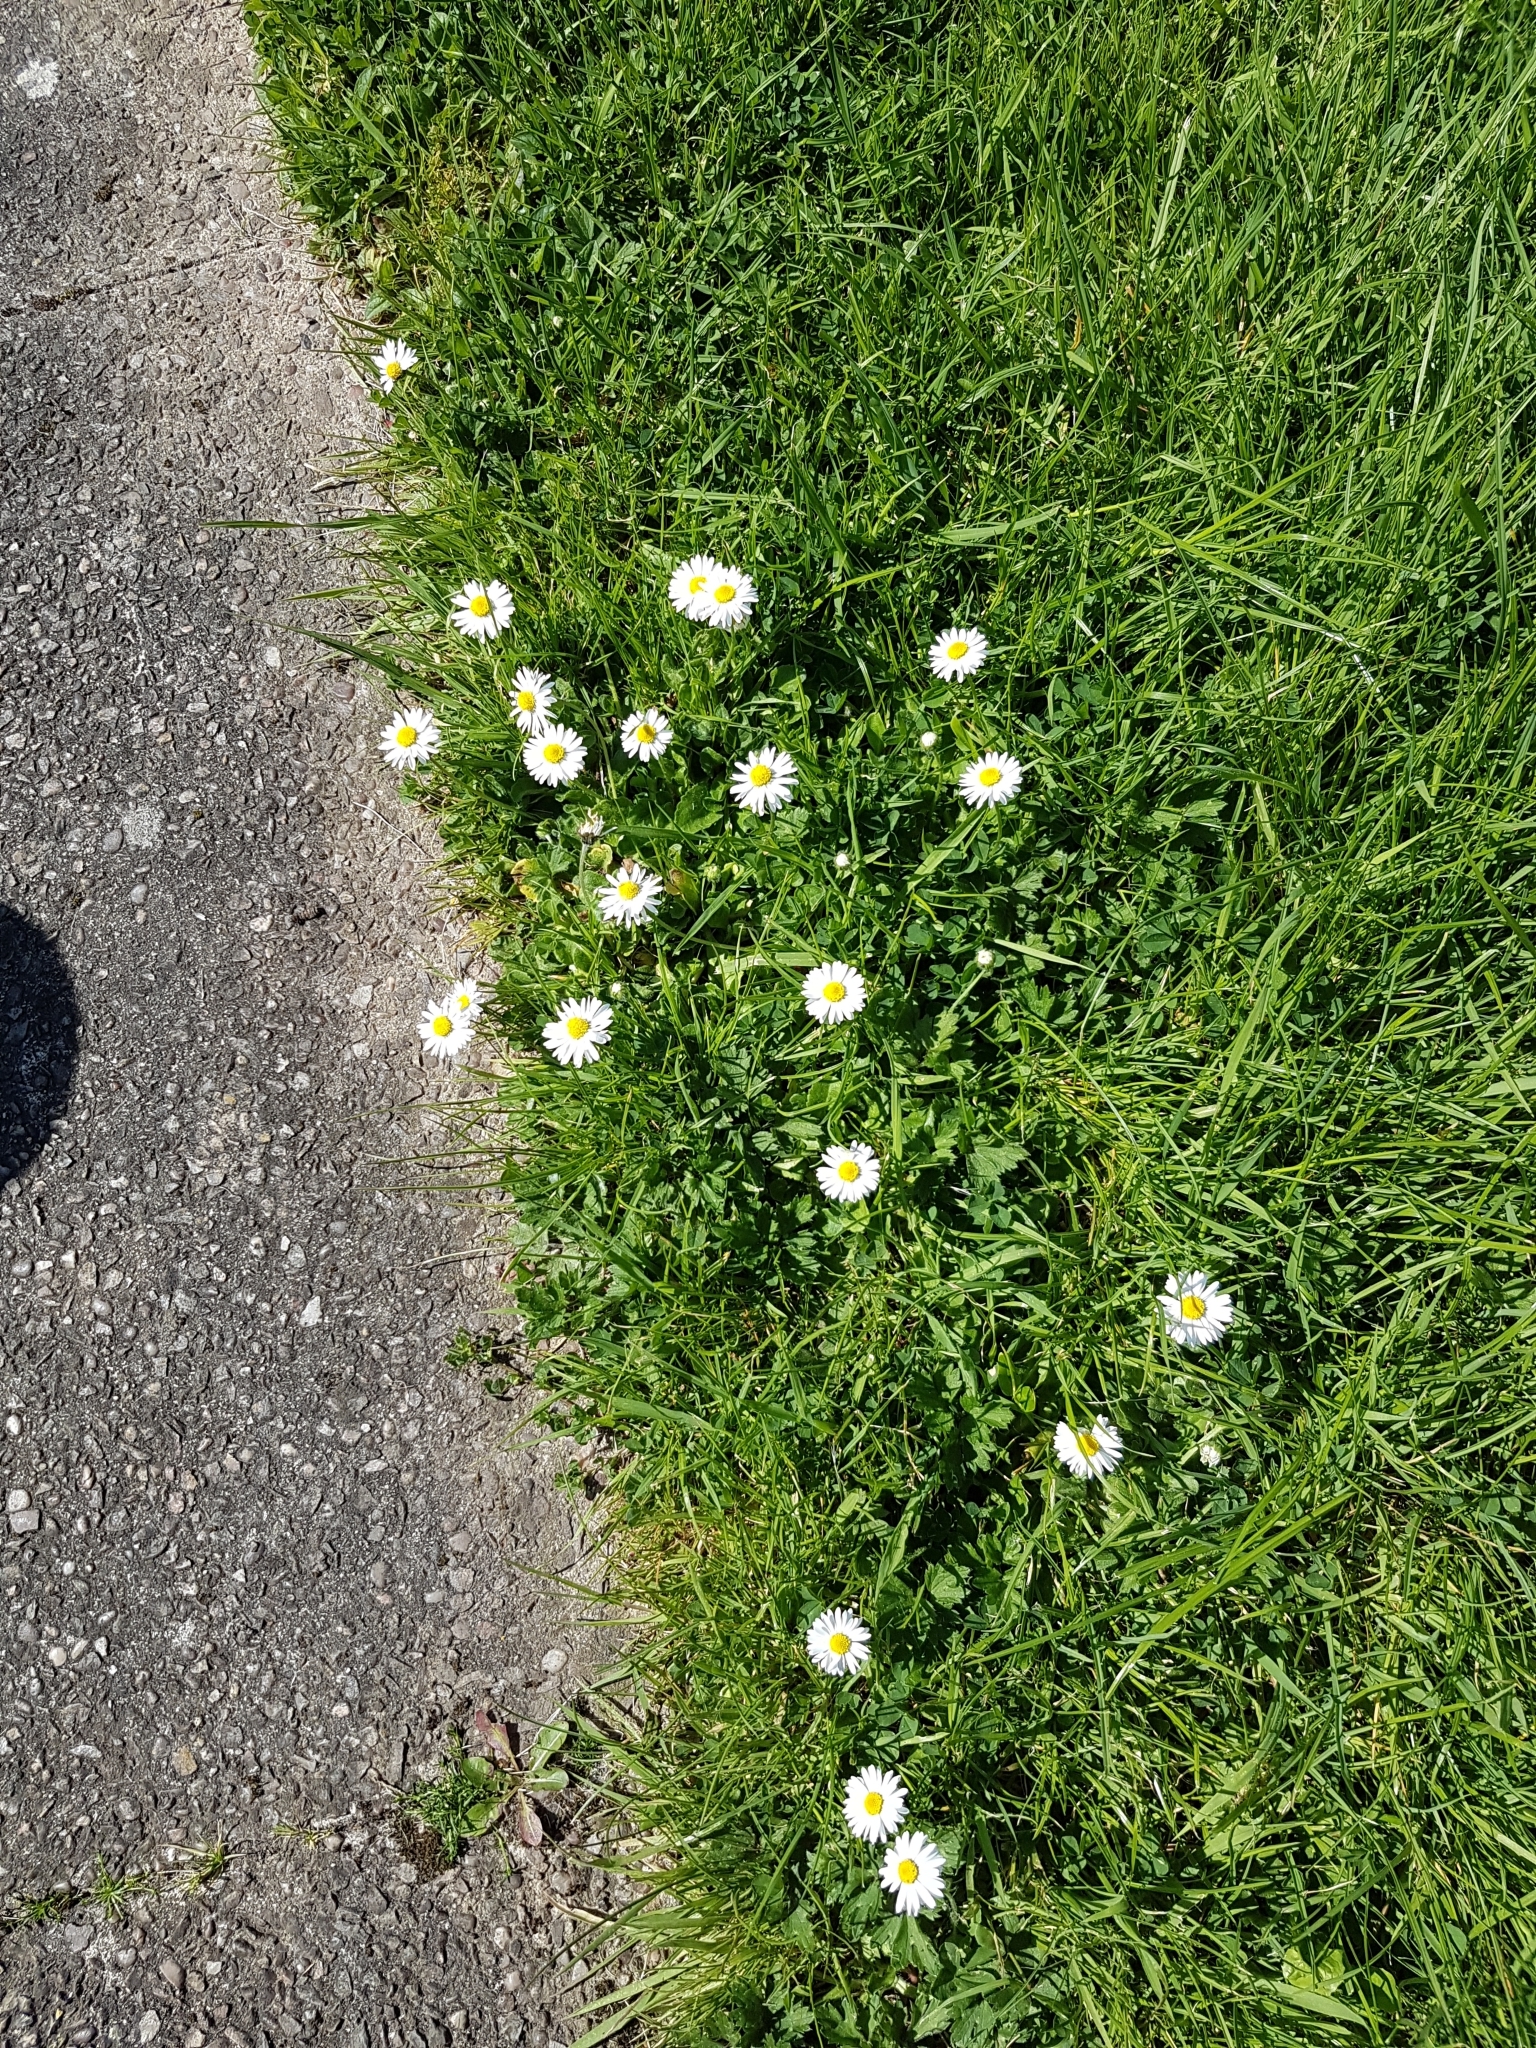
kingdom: Plantae
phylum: Tracheophyta
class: Magnoliopsida
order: Asterales
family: Asteraceae
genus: Bellis
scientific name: Bellis perennis
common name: Lawndaisy
